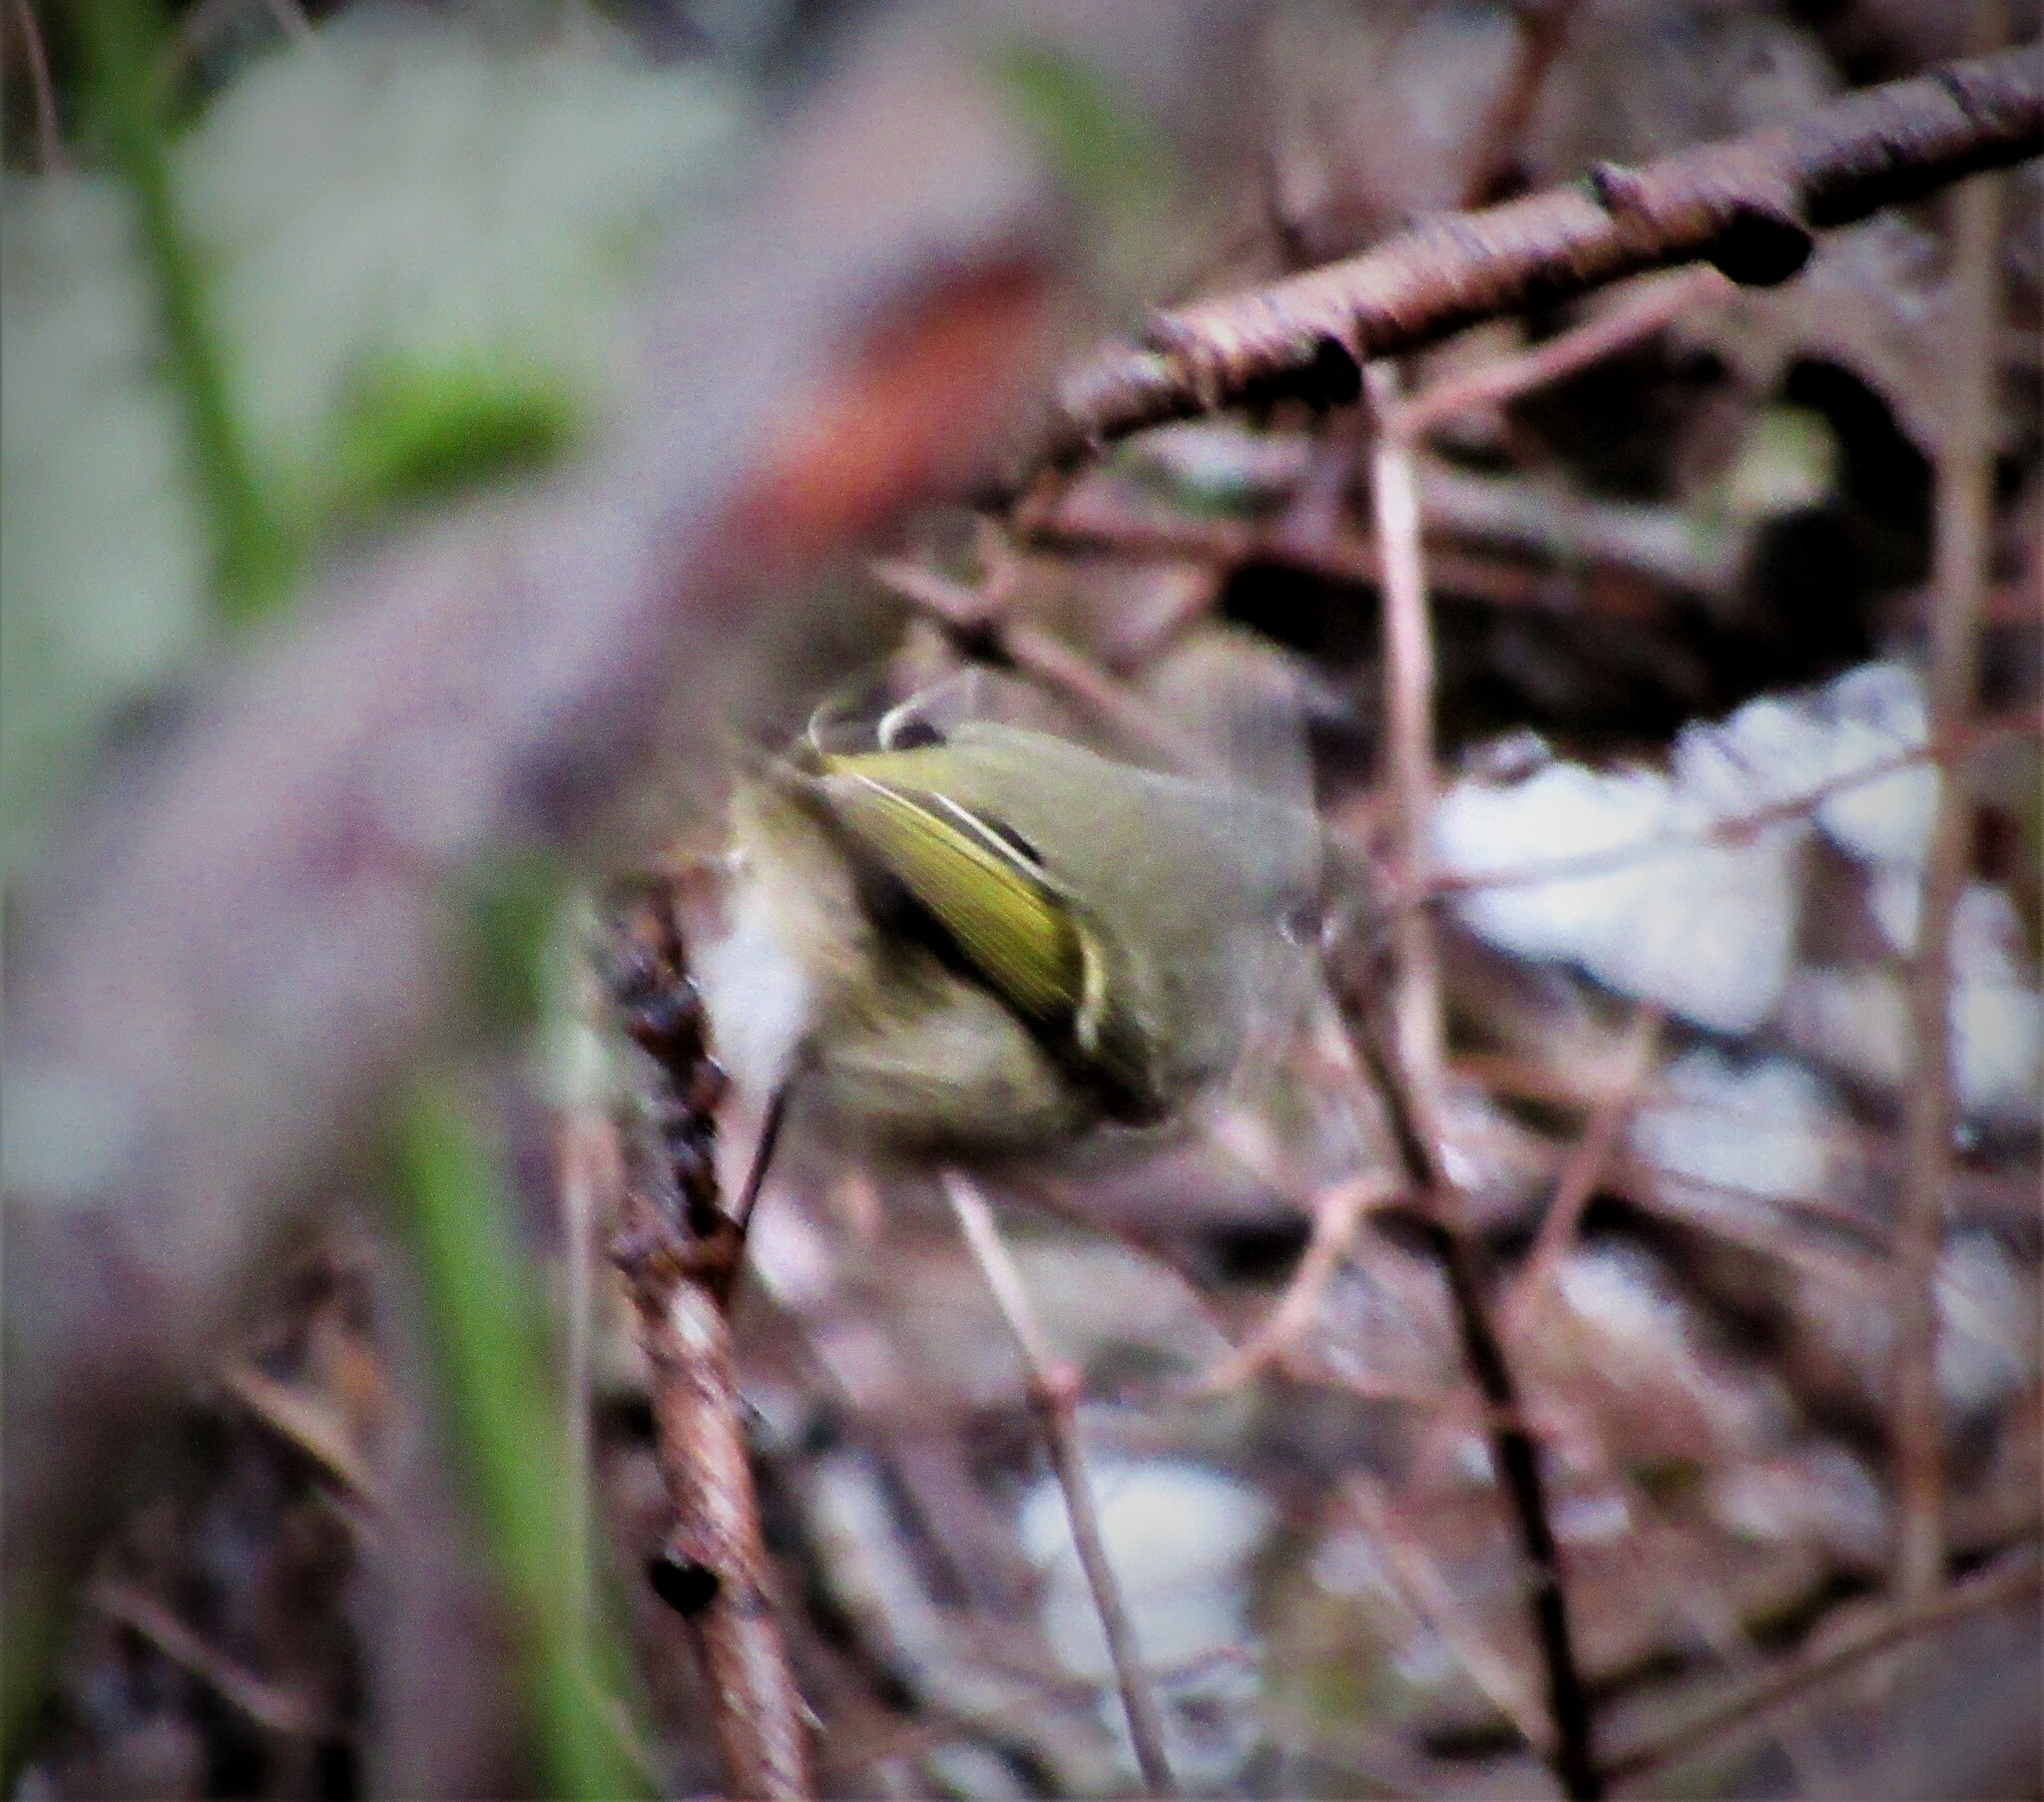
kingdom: Animalia
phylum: Chordata
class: Aves
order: Passeriformes
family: Regulidae
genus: Regulus
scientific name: Regulus calendula
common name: Ruby-crowned kinglet
